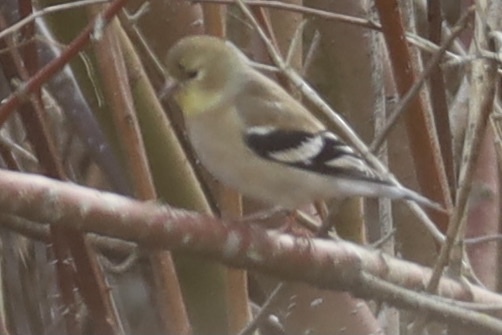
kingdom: Animalia
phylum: Chordata
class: Aves
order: Passeriformes
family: Fringillidae
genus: Spinus
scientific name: Spinus tristis
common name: American goldfinch
